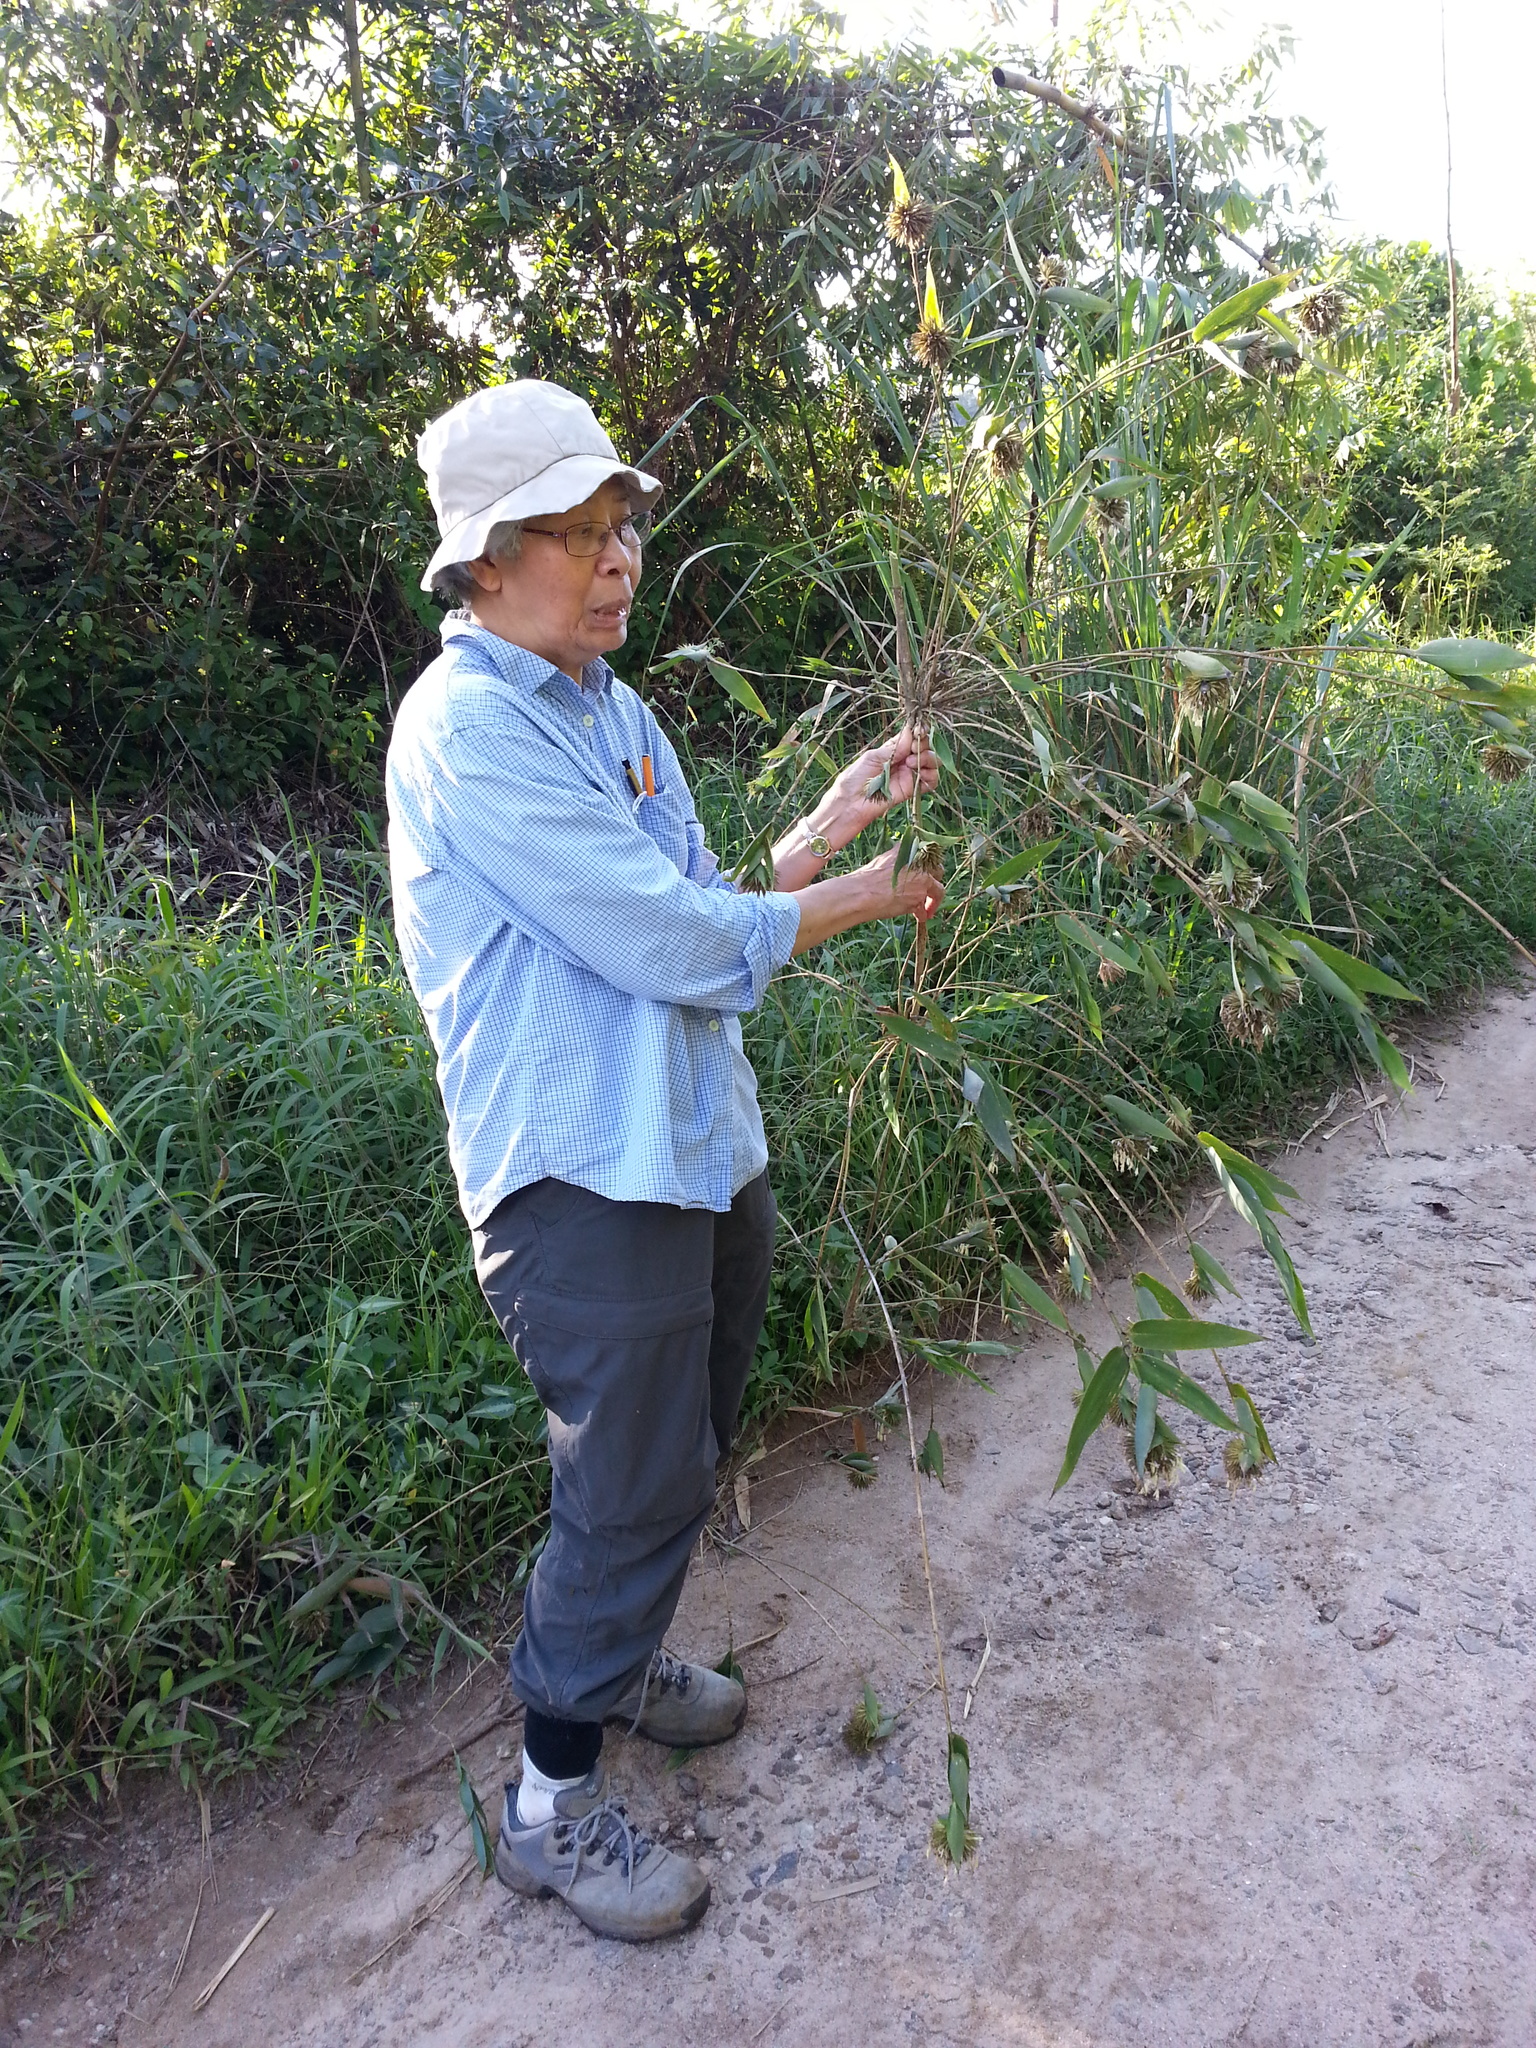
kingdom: Plantae
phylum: Tracheophyta
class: Liliopsida
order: Poales
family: Poaceae
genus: Cathariostachys
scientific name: Cathariostachys madagascariensis
